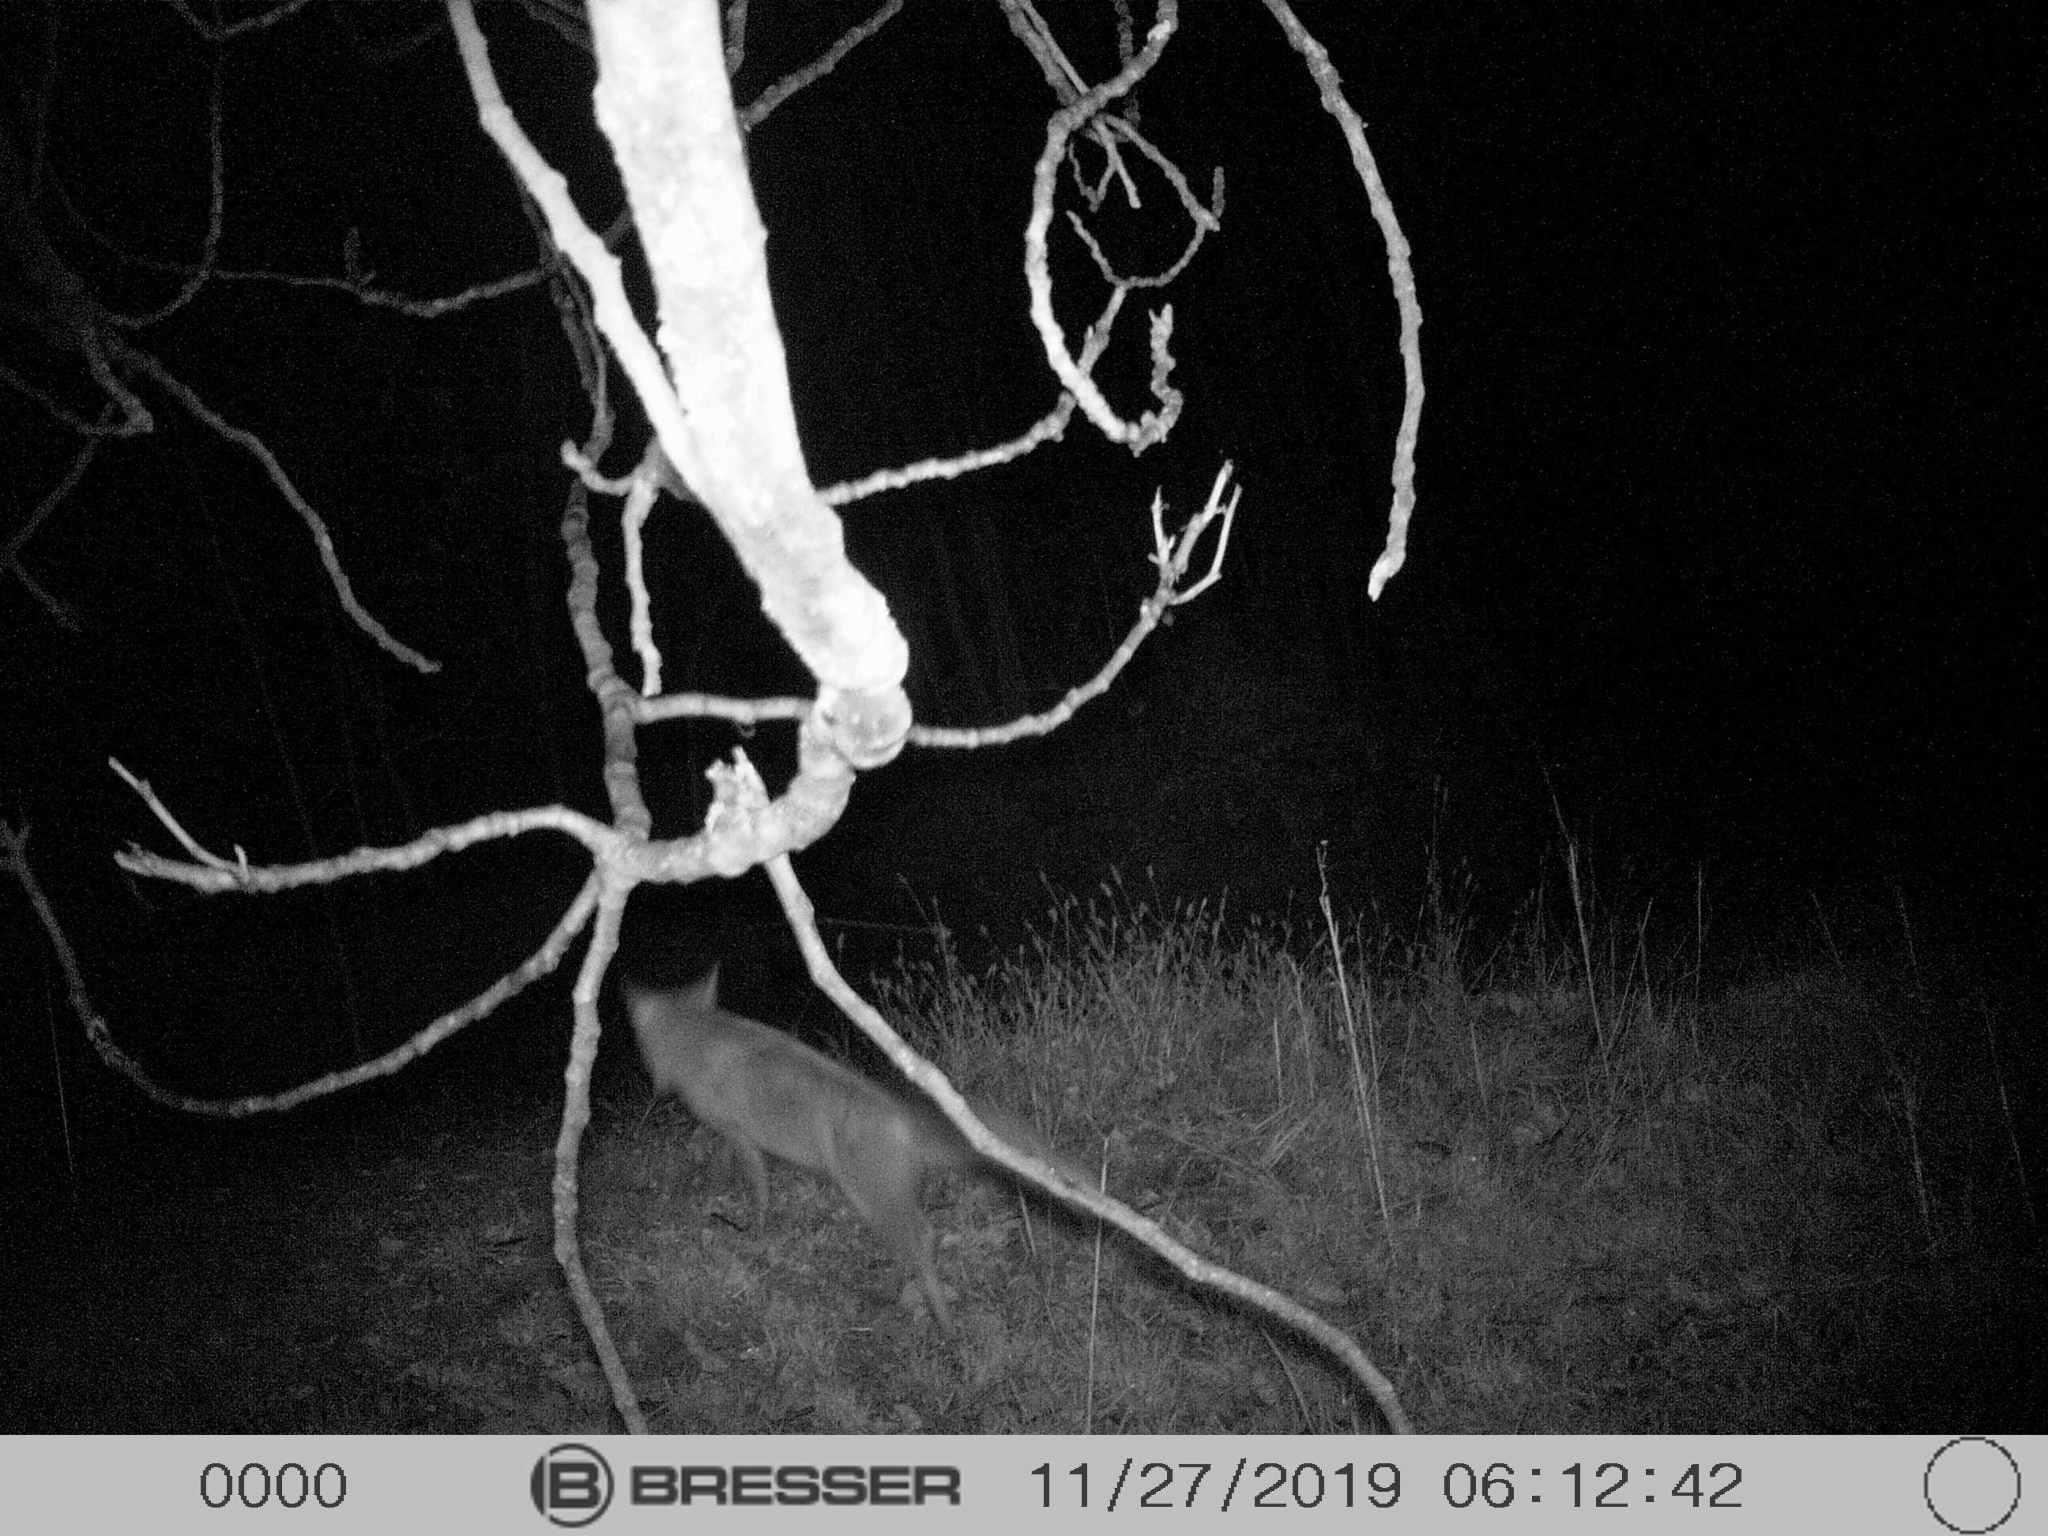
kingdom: Animalia
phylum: Chordata
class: Mammalia
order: Carnivora
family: Canidae
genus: Vulpes
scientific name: Vulpes vulpes
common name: Red fox
